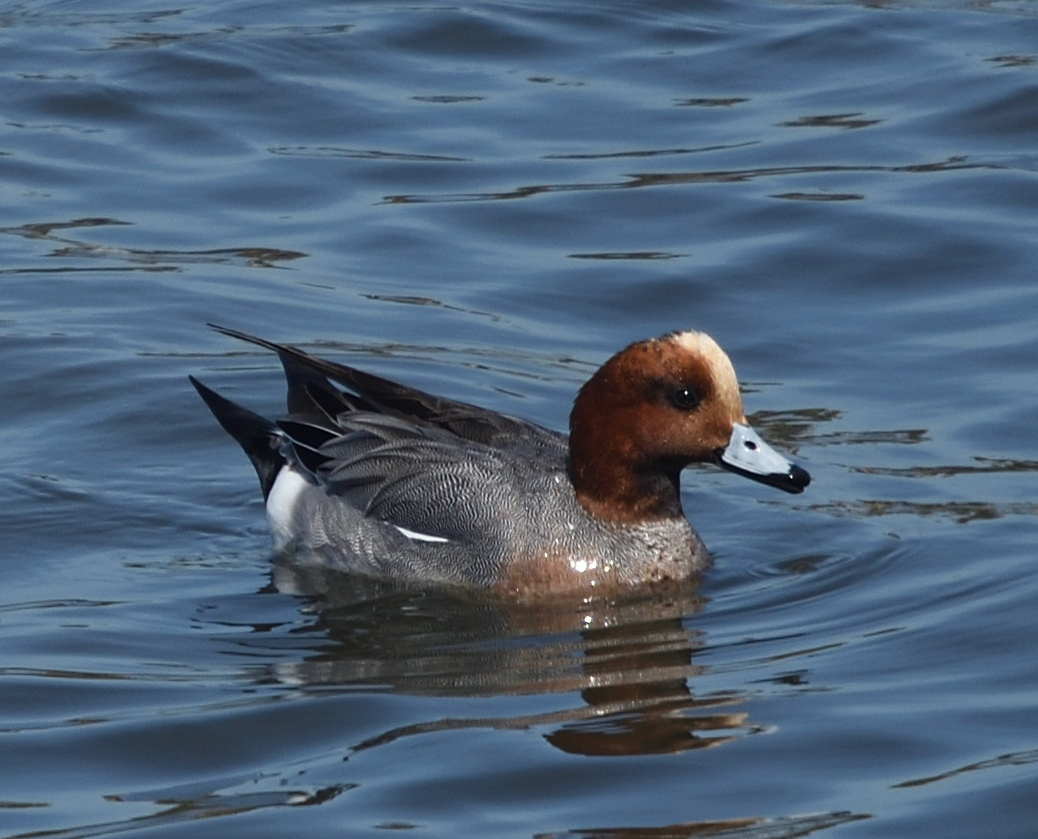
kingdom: Animalia
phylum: Chordata
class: Aves
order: Anseriformes
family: Anatidae
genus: Mareca
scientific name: Mareca penelope
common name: Eurasian wigeon
